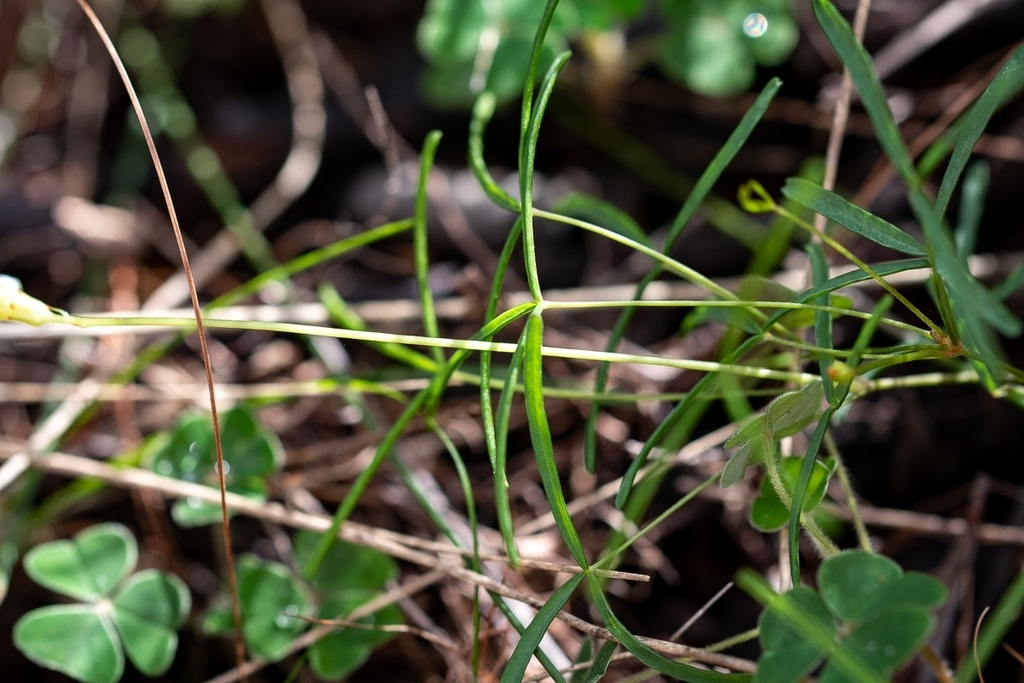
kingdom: Plantae
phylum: Tracheophyta
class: Magnoliopsida
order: Oxalidales
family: Oxalidaceae
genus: Oxalis
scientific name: Oxalis polyphylla
